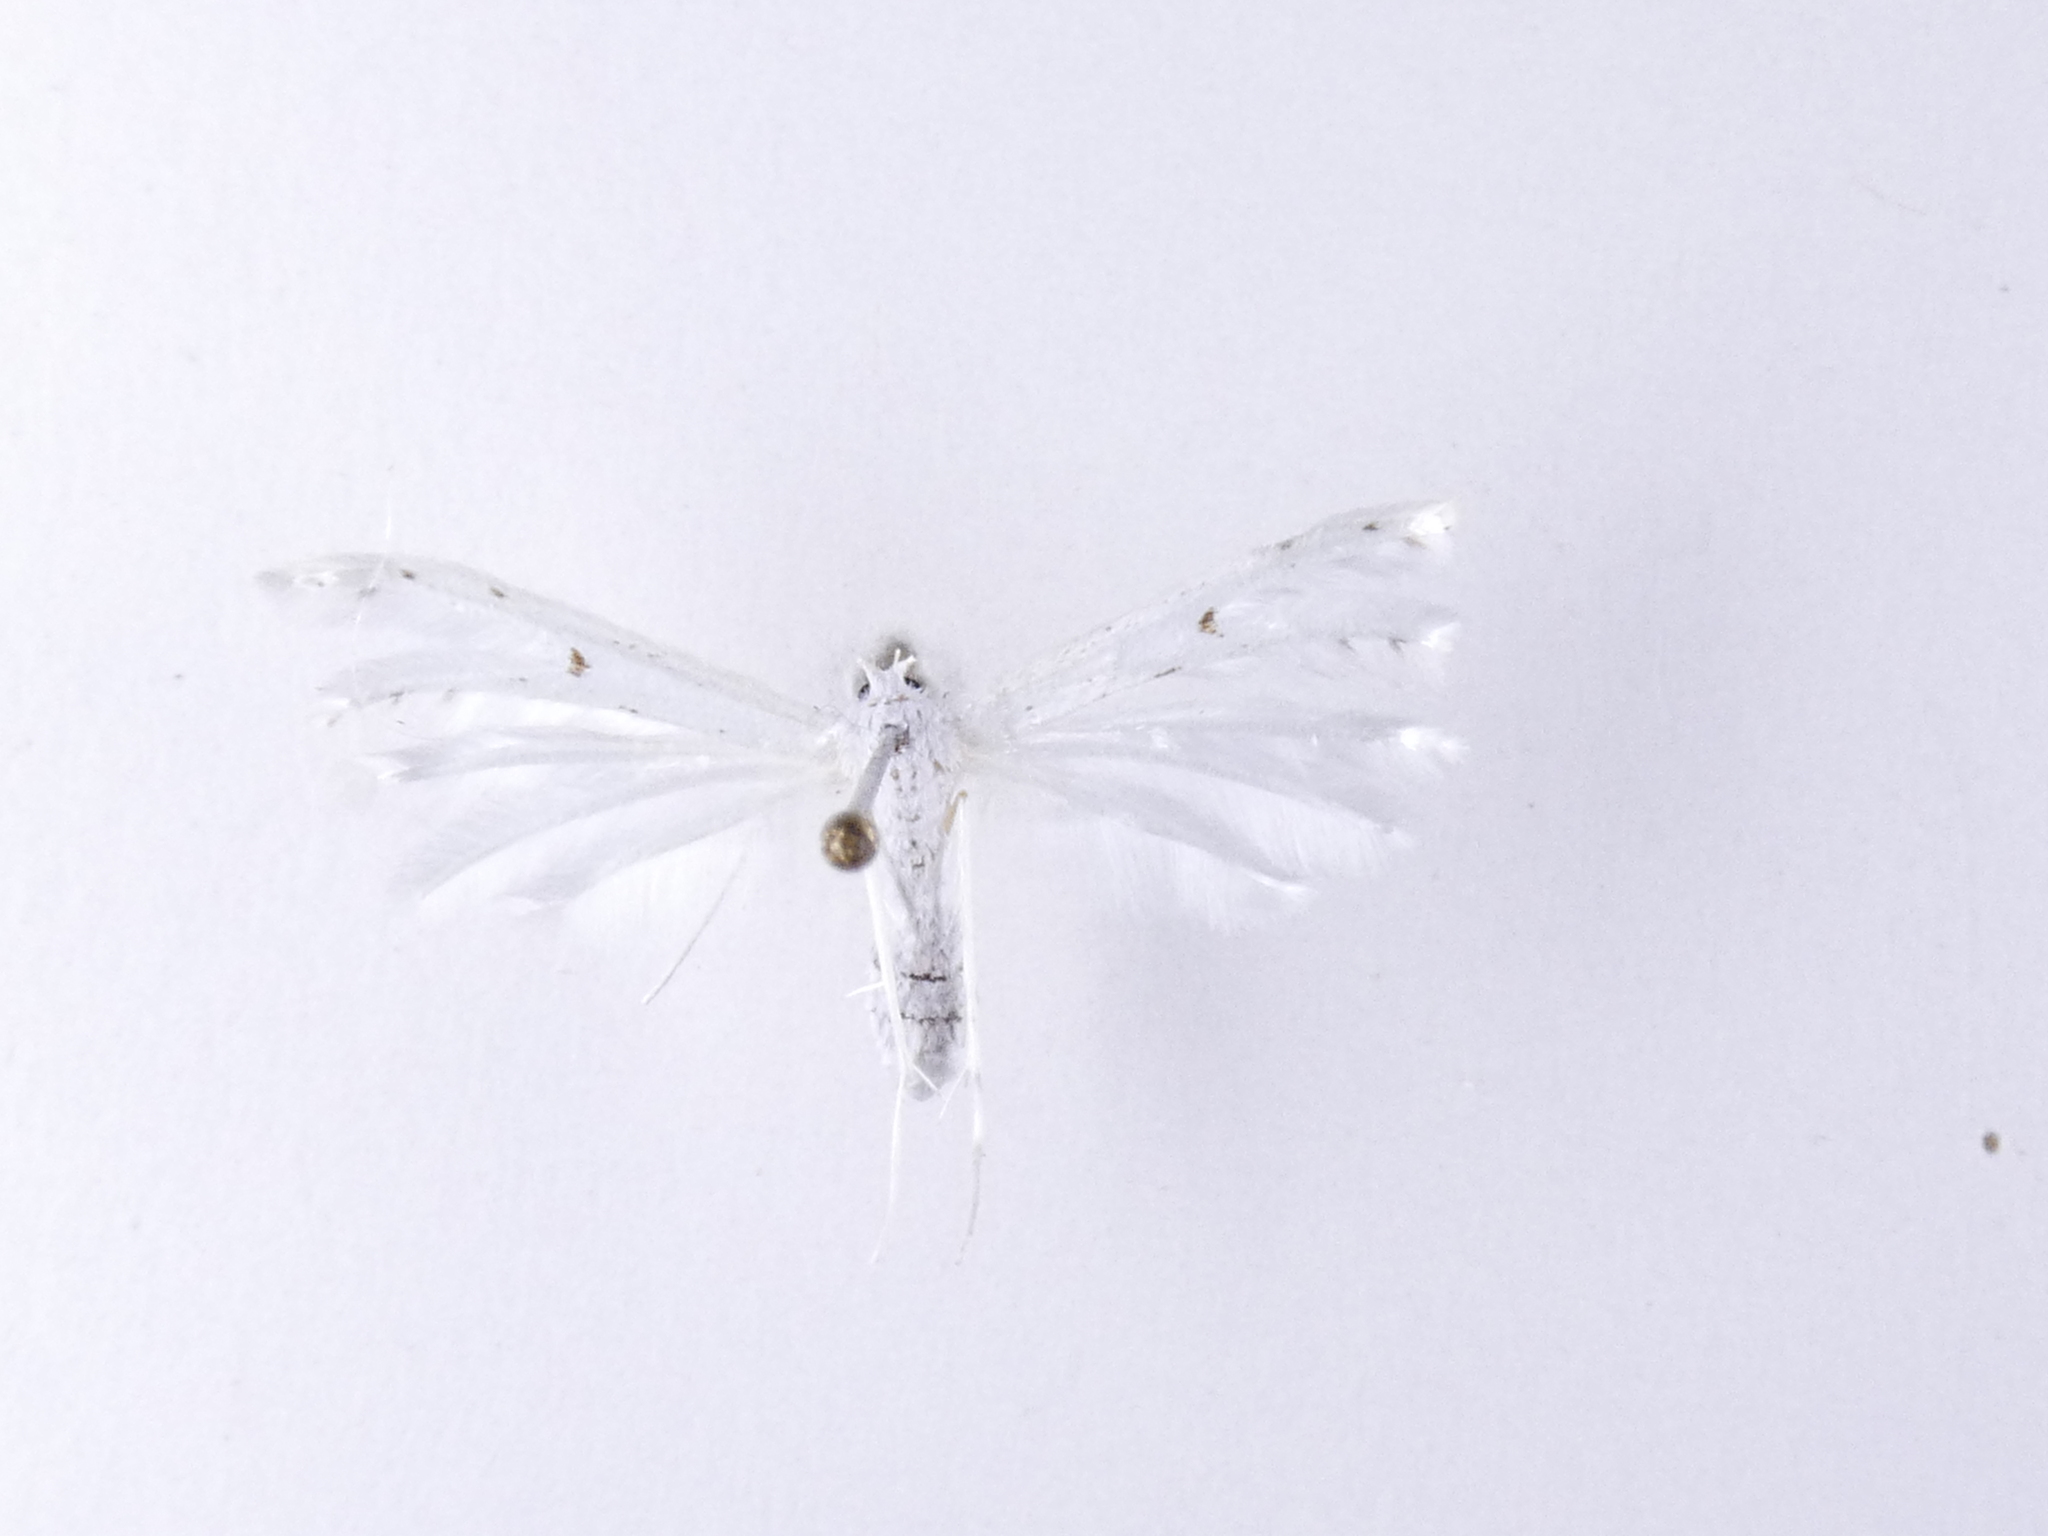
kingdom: Animalia
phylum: Arthropoda
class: Insecta
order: Lepidoptera
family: Pterophoridae
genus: Pterophorus
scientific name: Pterophorus monospilalis
